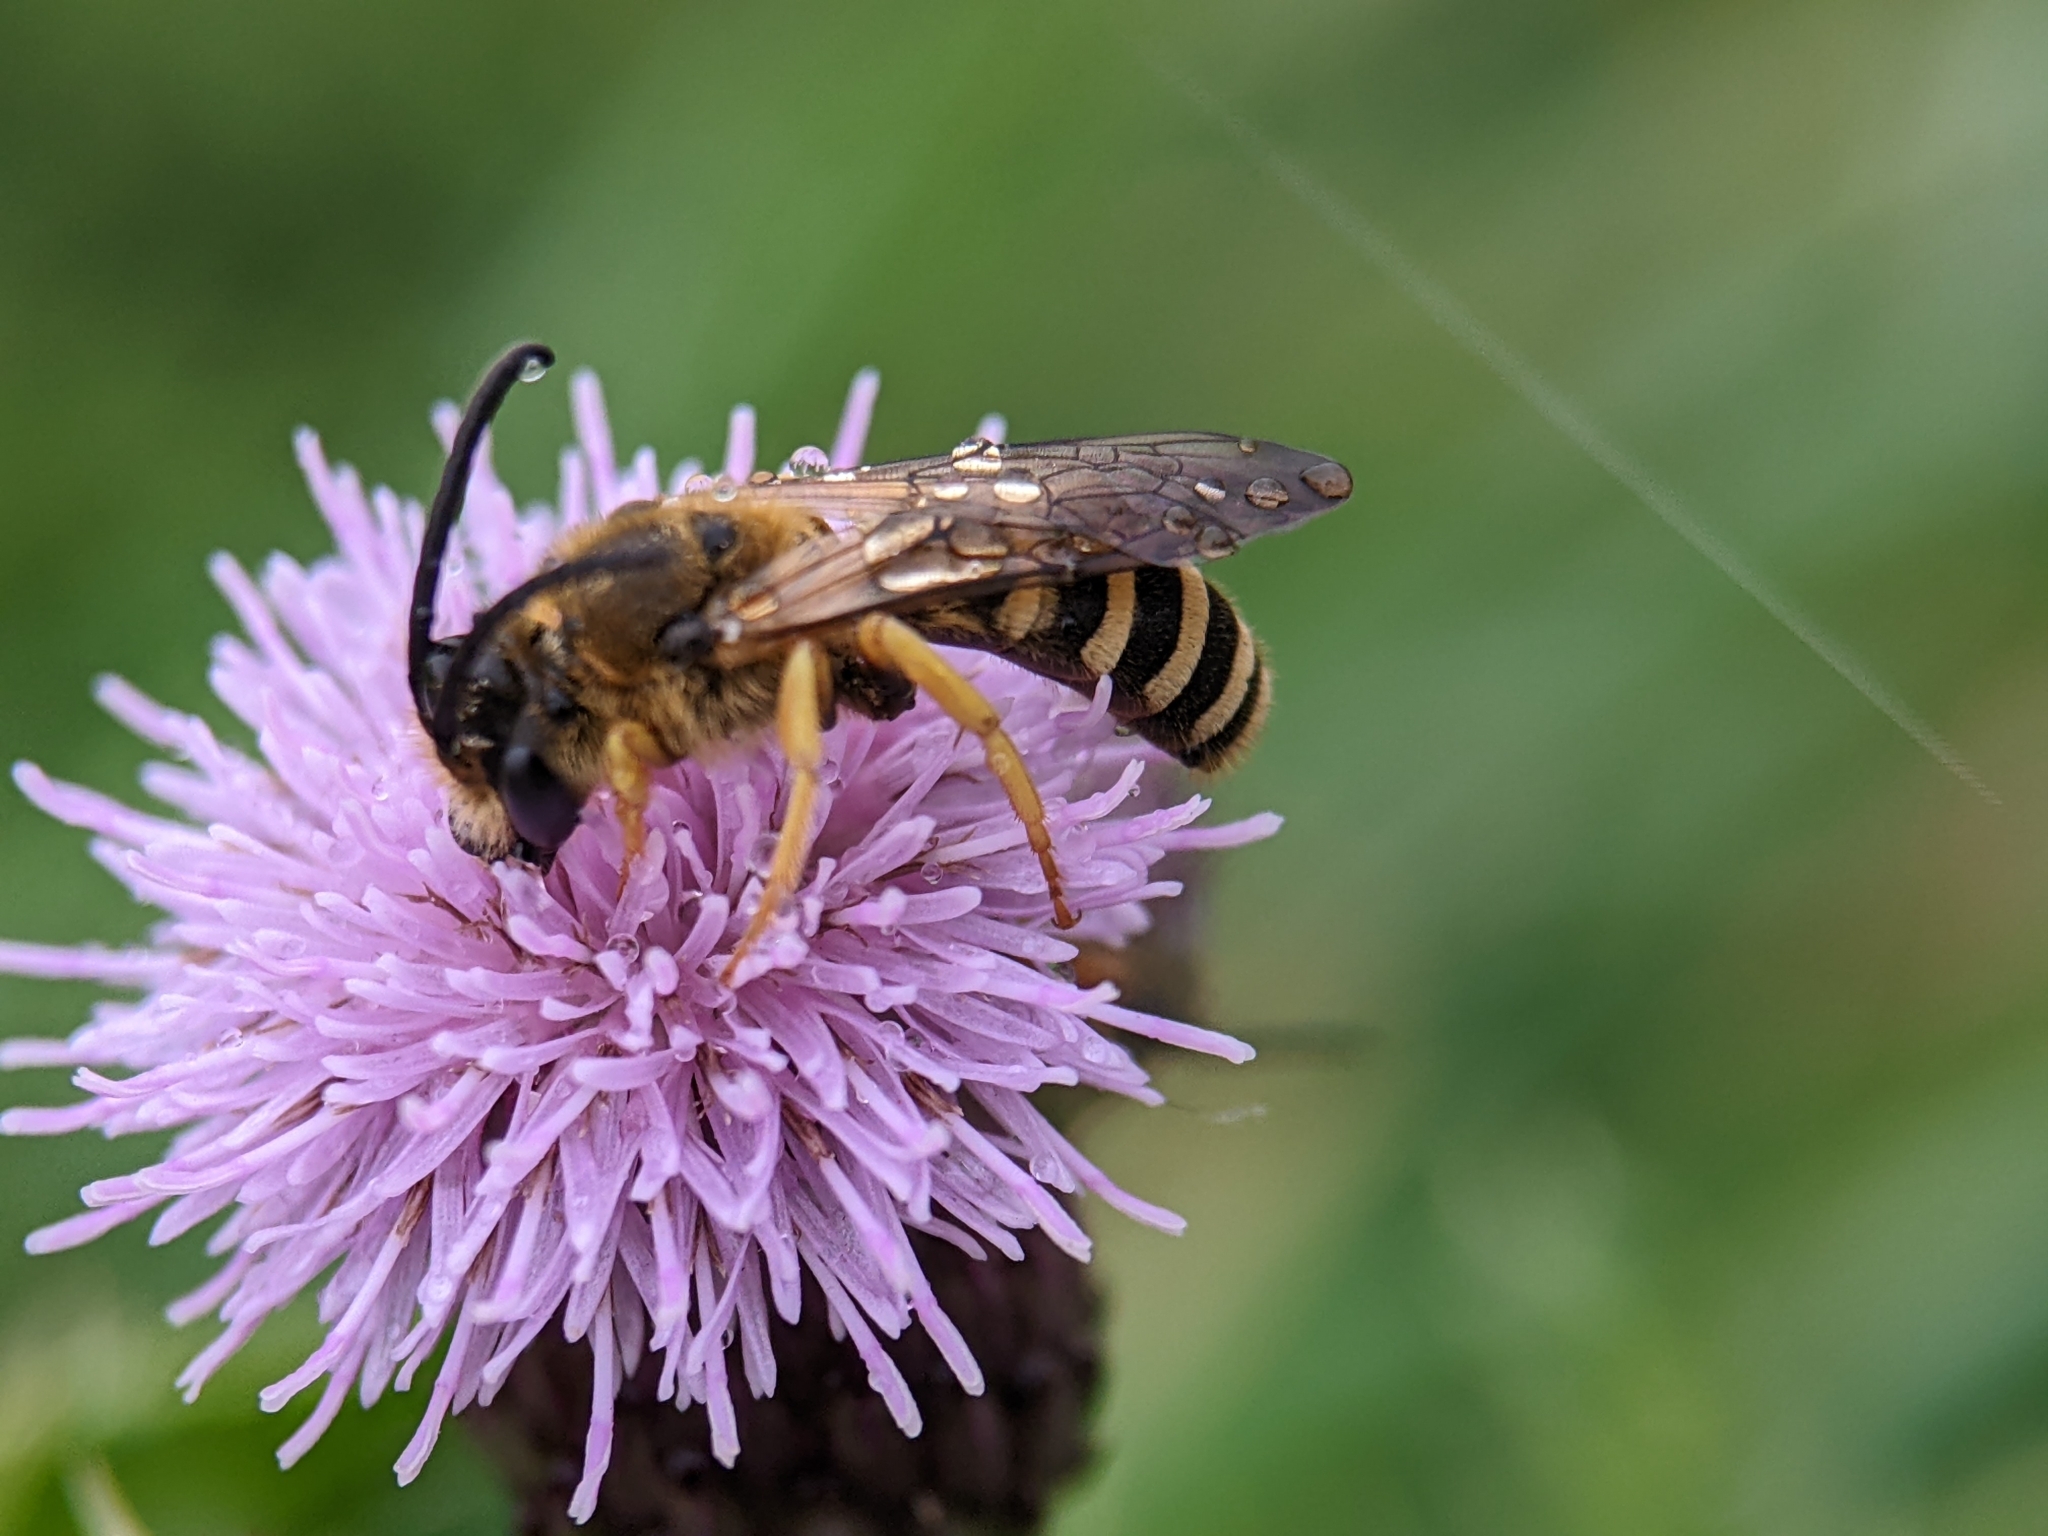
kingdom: Animalia
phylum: Arthropoda
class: Insecta
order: Hymenoptera
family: Halictidae
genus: Halictus
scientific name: Halictus scabiosae
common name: Great banded furrow bee
